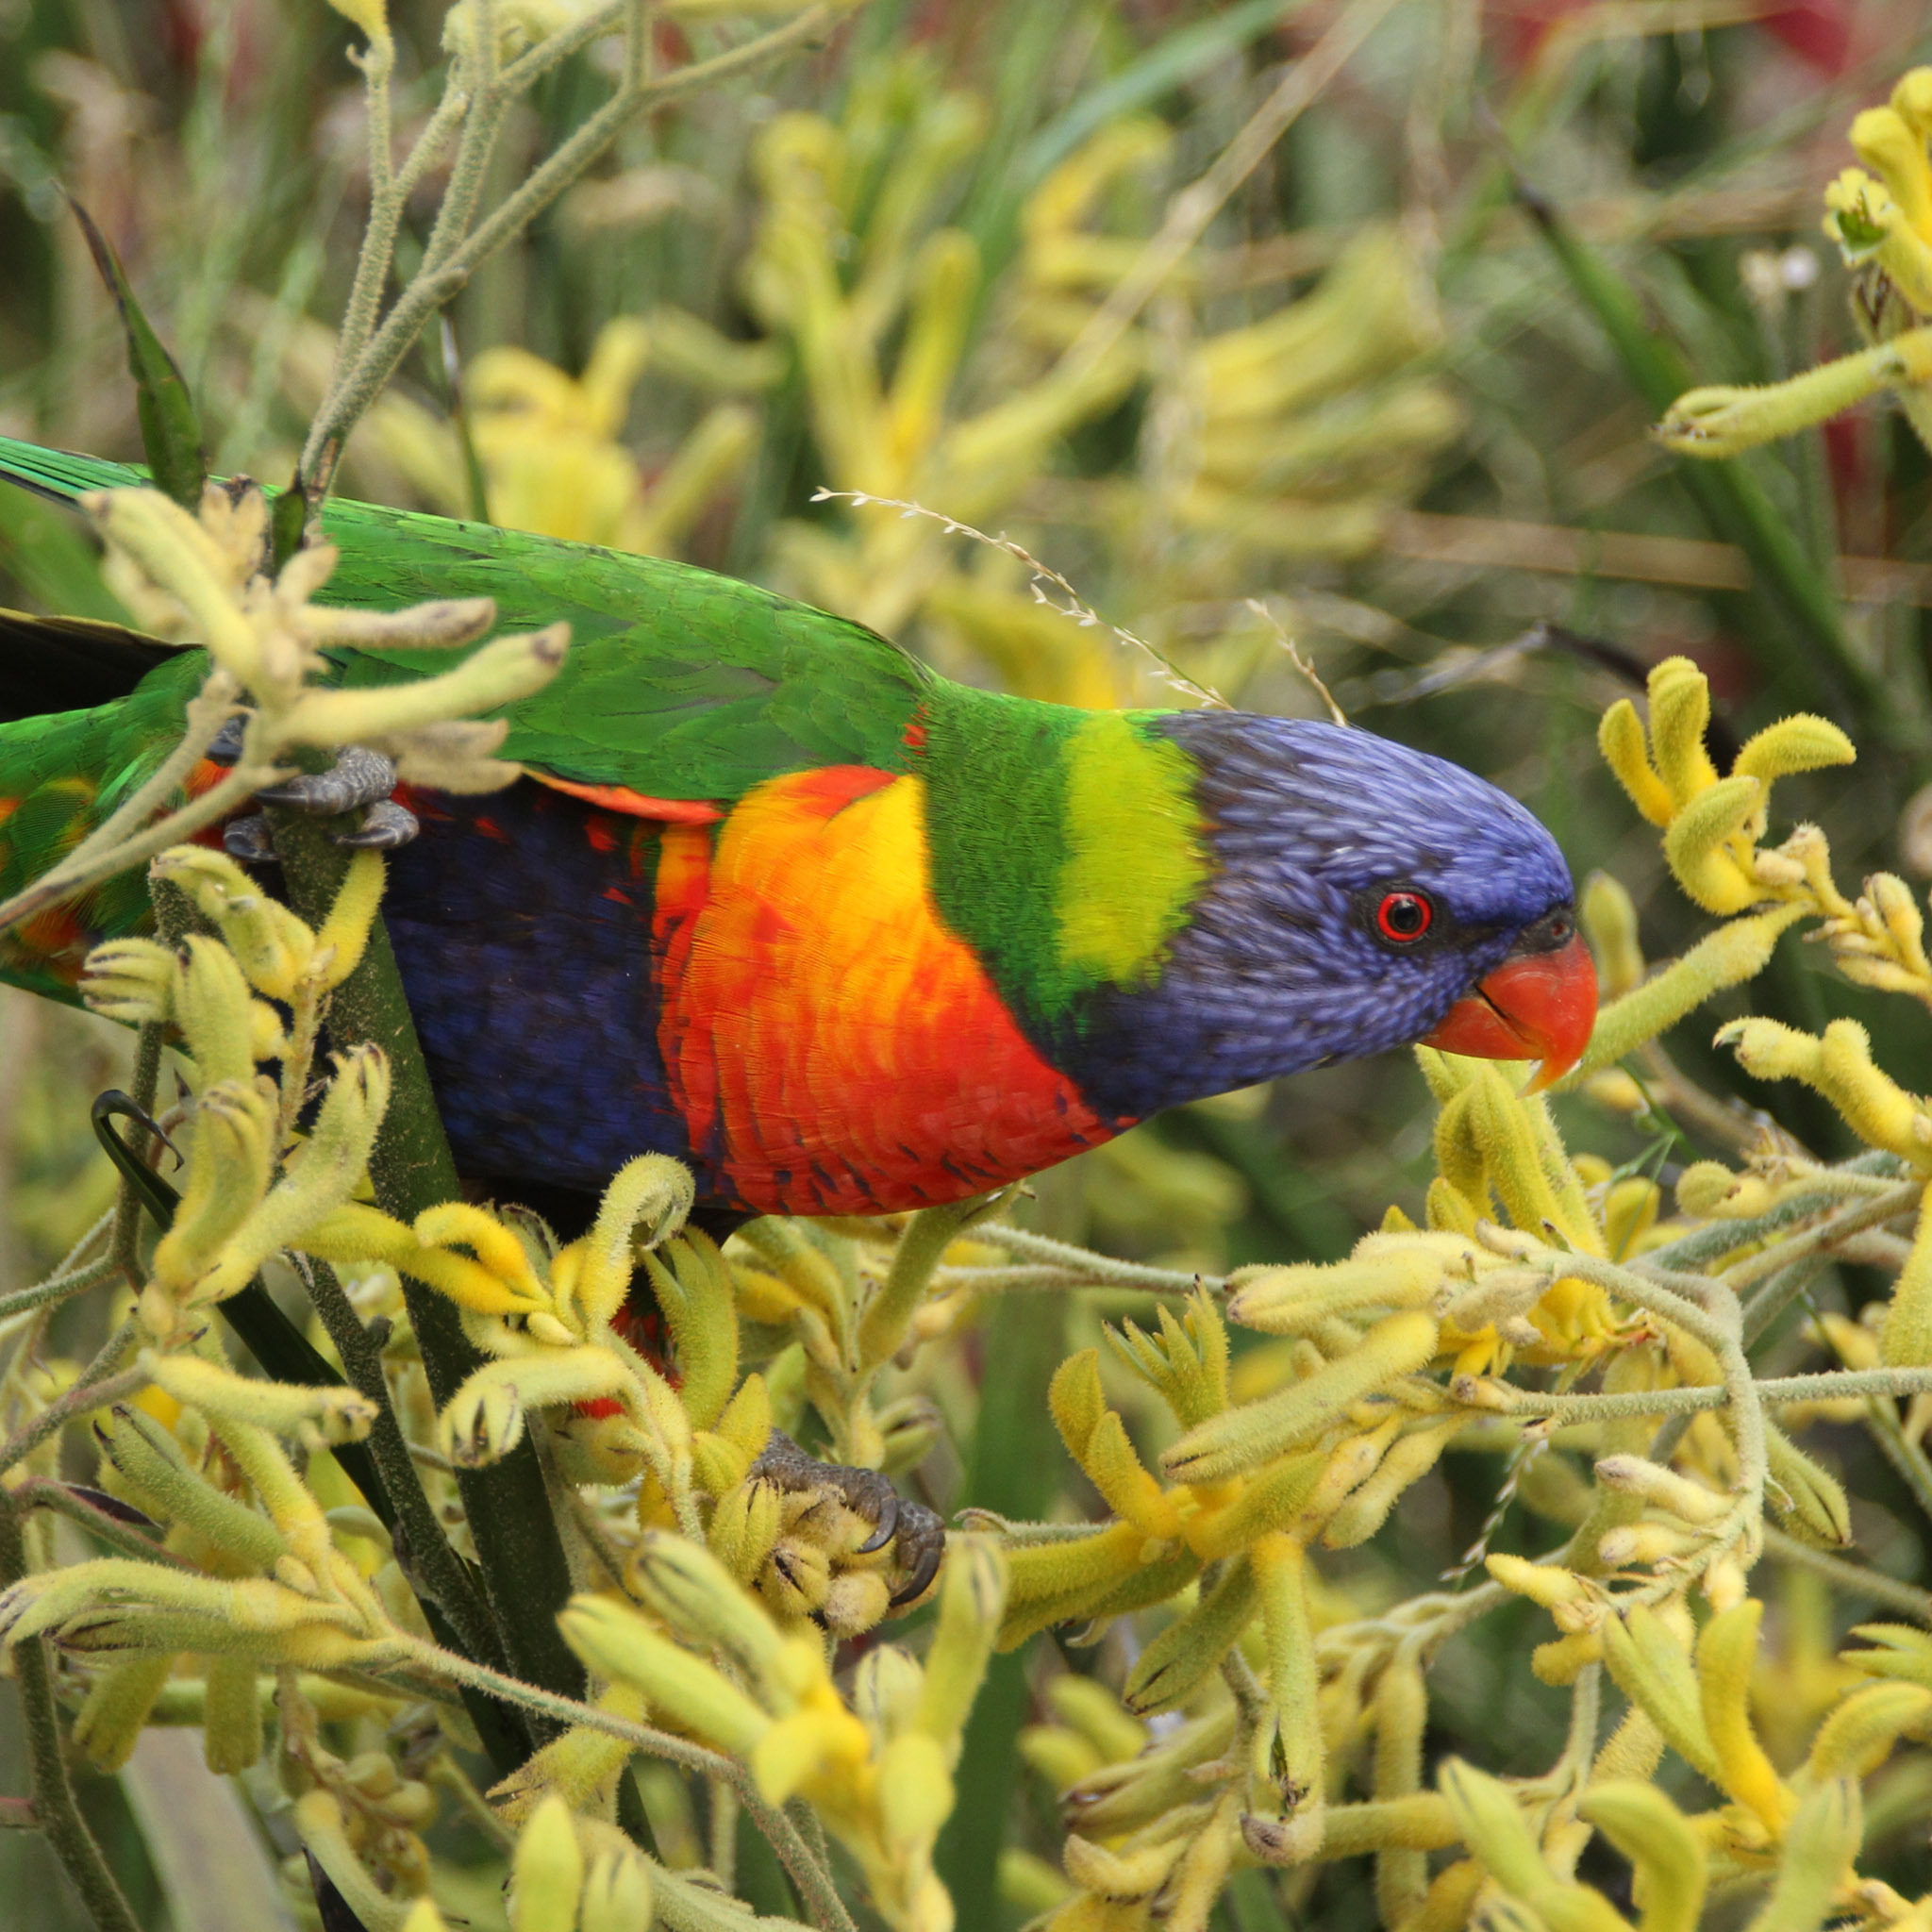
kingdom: Animalia
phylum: Chordata
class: Aves
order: Psittaciformes
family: Psittacidae
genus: Trichoglossus
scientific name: Trichoglossus haematodus
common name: Coconut lorikeet
